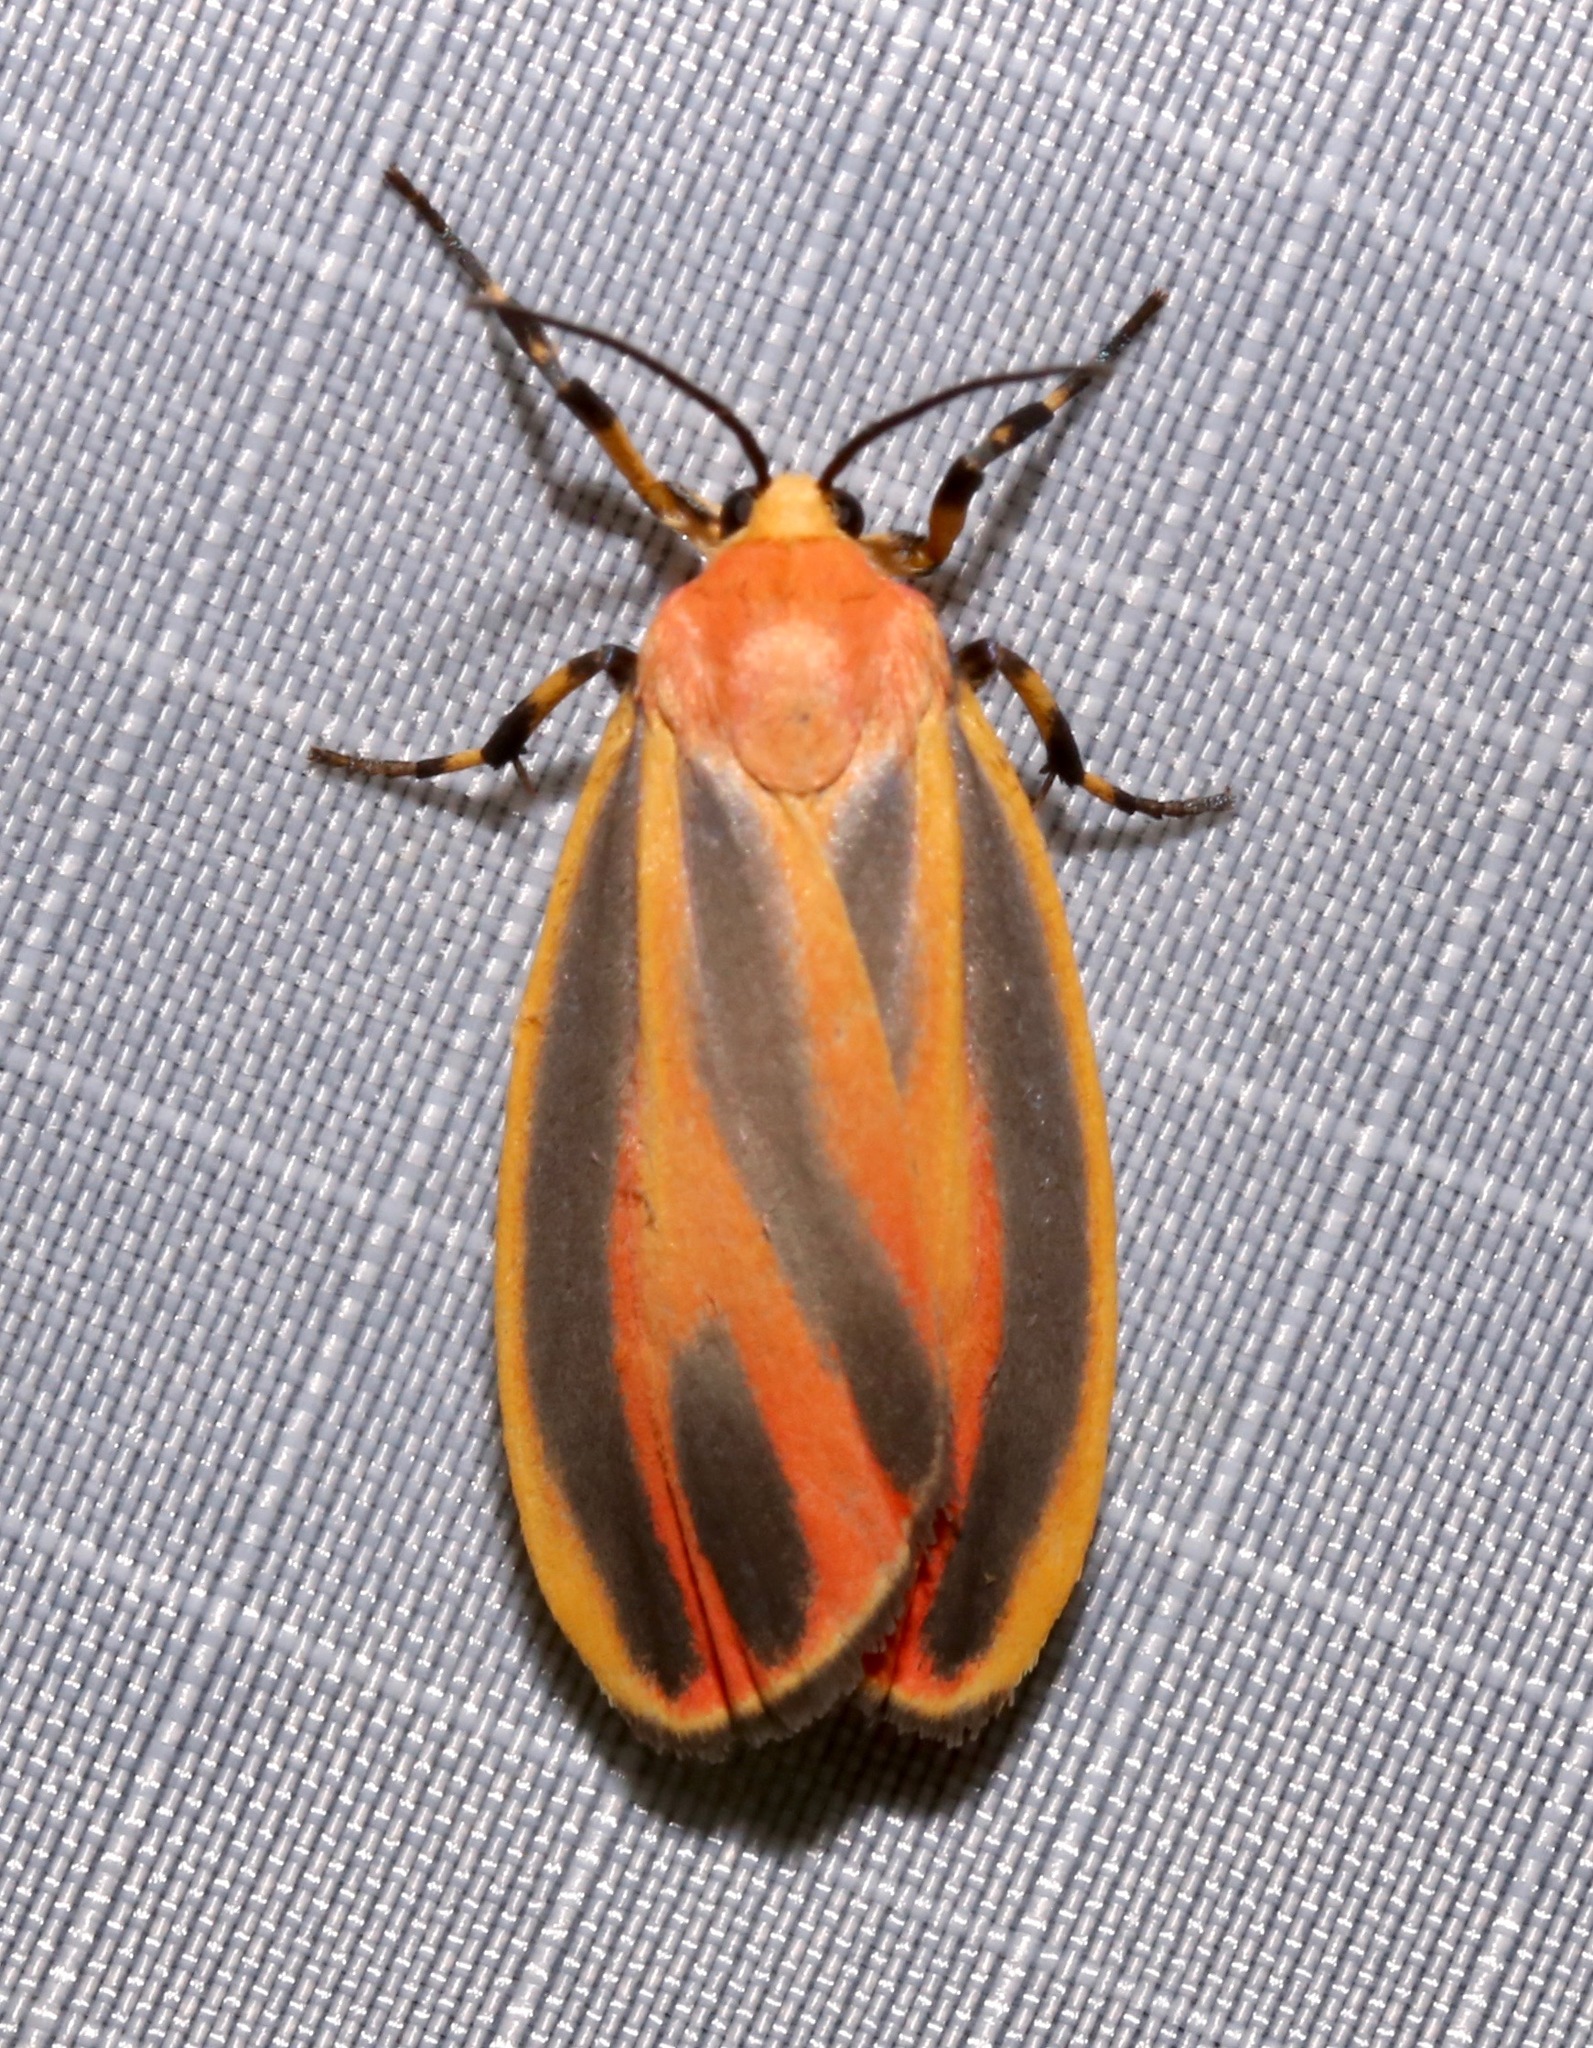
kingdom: Animalia
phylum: Arthropoda
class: Insecta
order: Lepidoptera
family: Erebidae
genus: Hypoprepia
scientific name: Hypoprepia fucosa
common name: Painted lichen moth
